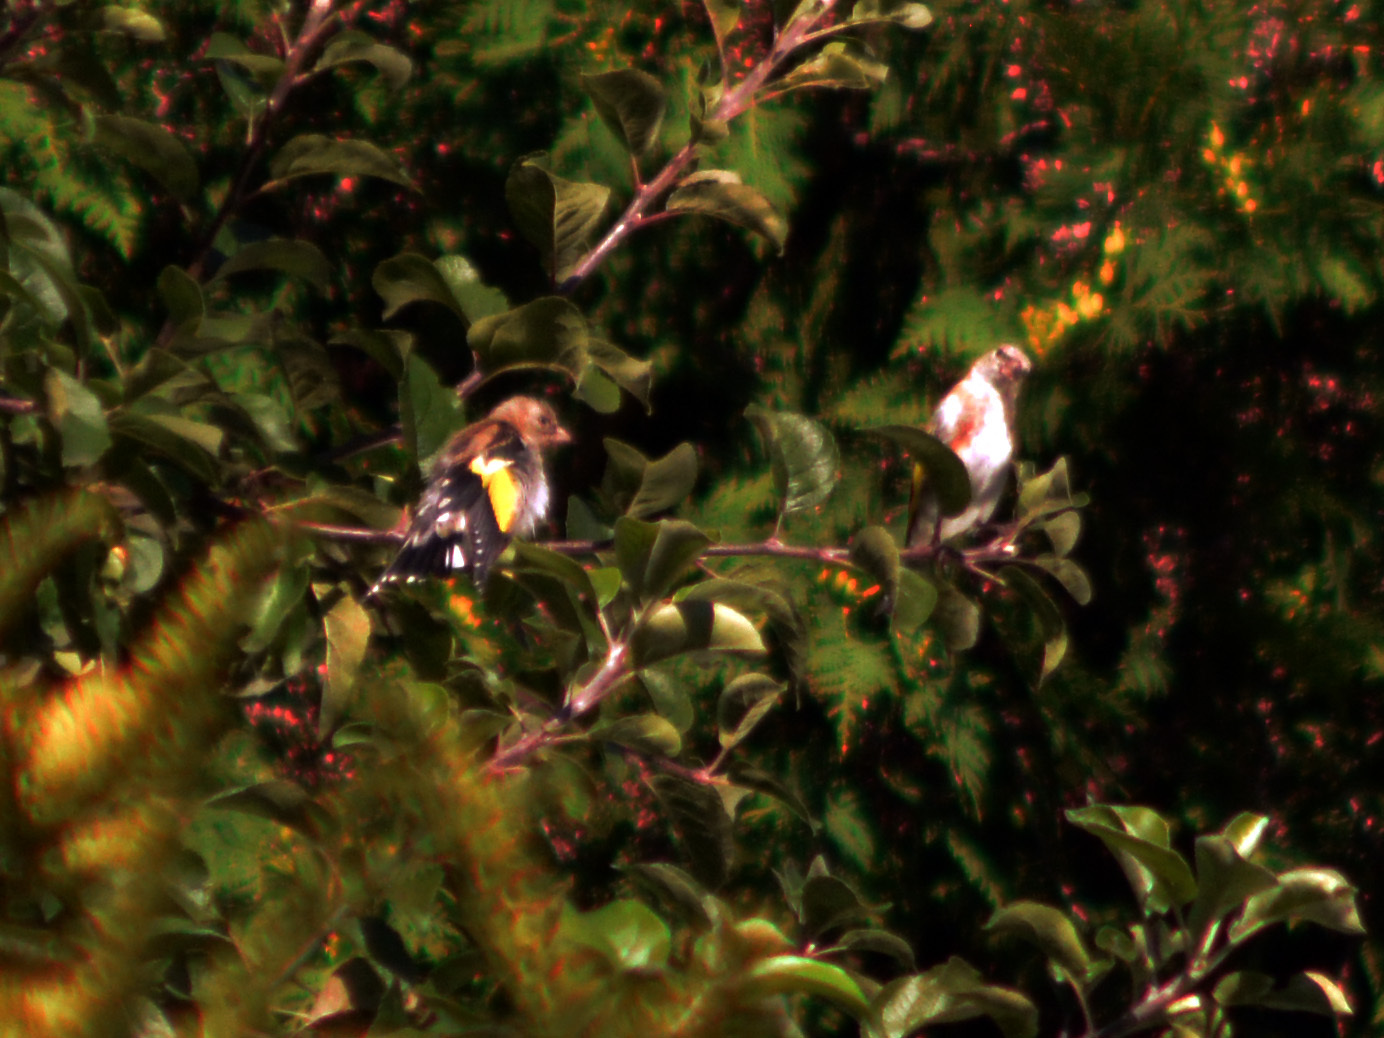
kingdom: Animalia
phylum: Chordata
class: Aves
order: Passeriformes
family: Fringillidae
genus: Carduelis
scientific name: Carduelis carduelis
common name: European goldfinch
